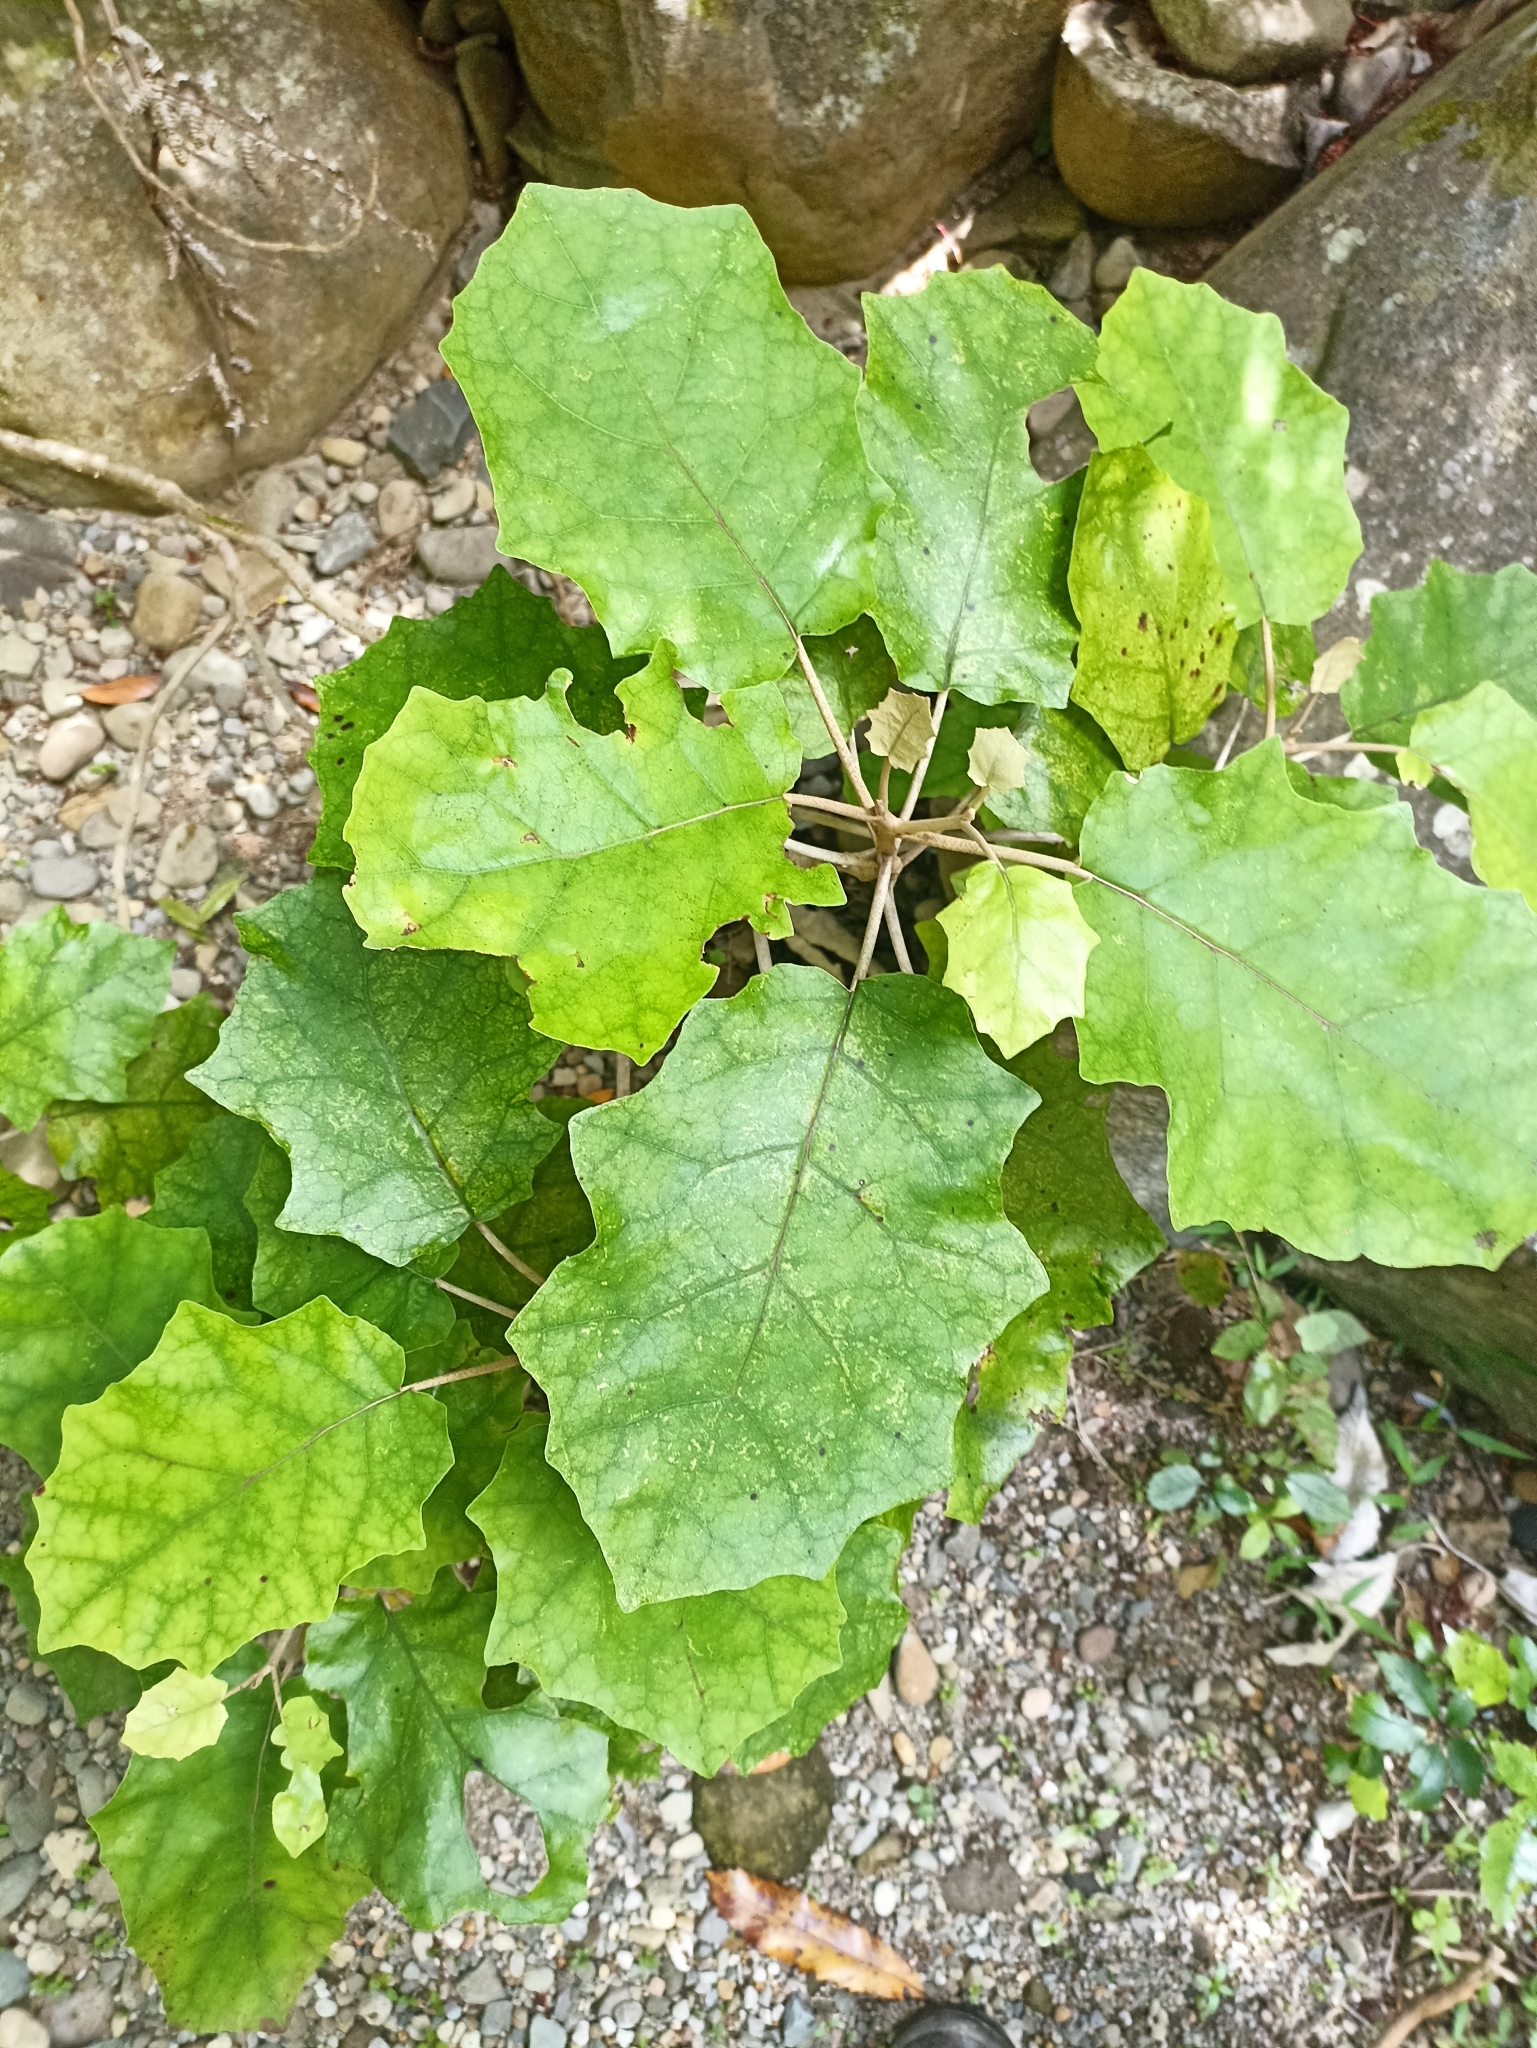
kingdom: Plantae
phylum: Tracheophyta
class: Magnoliopsida
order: Asterales
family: Asteraceae
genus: Brachyglottis
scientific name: Brachyglottis repanda
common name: Hedge ragwort
